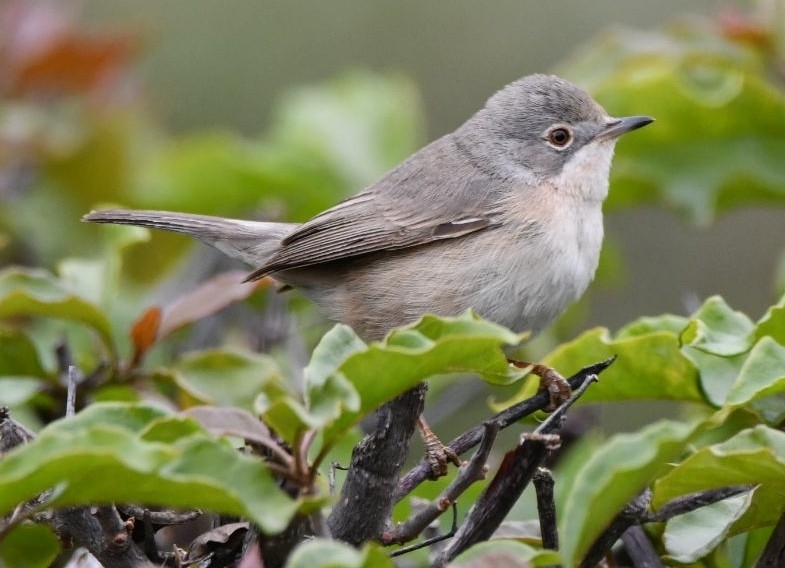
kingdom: Animalia
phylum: Chordata
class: Aves
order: Passeriformes
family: Sylviidae
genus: Curruca
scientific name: Curruca iberiae
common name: Western subalpine warbler
